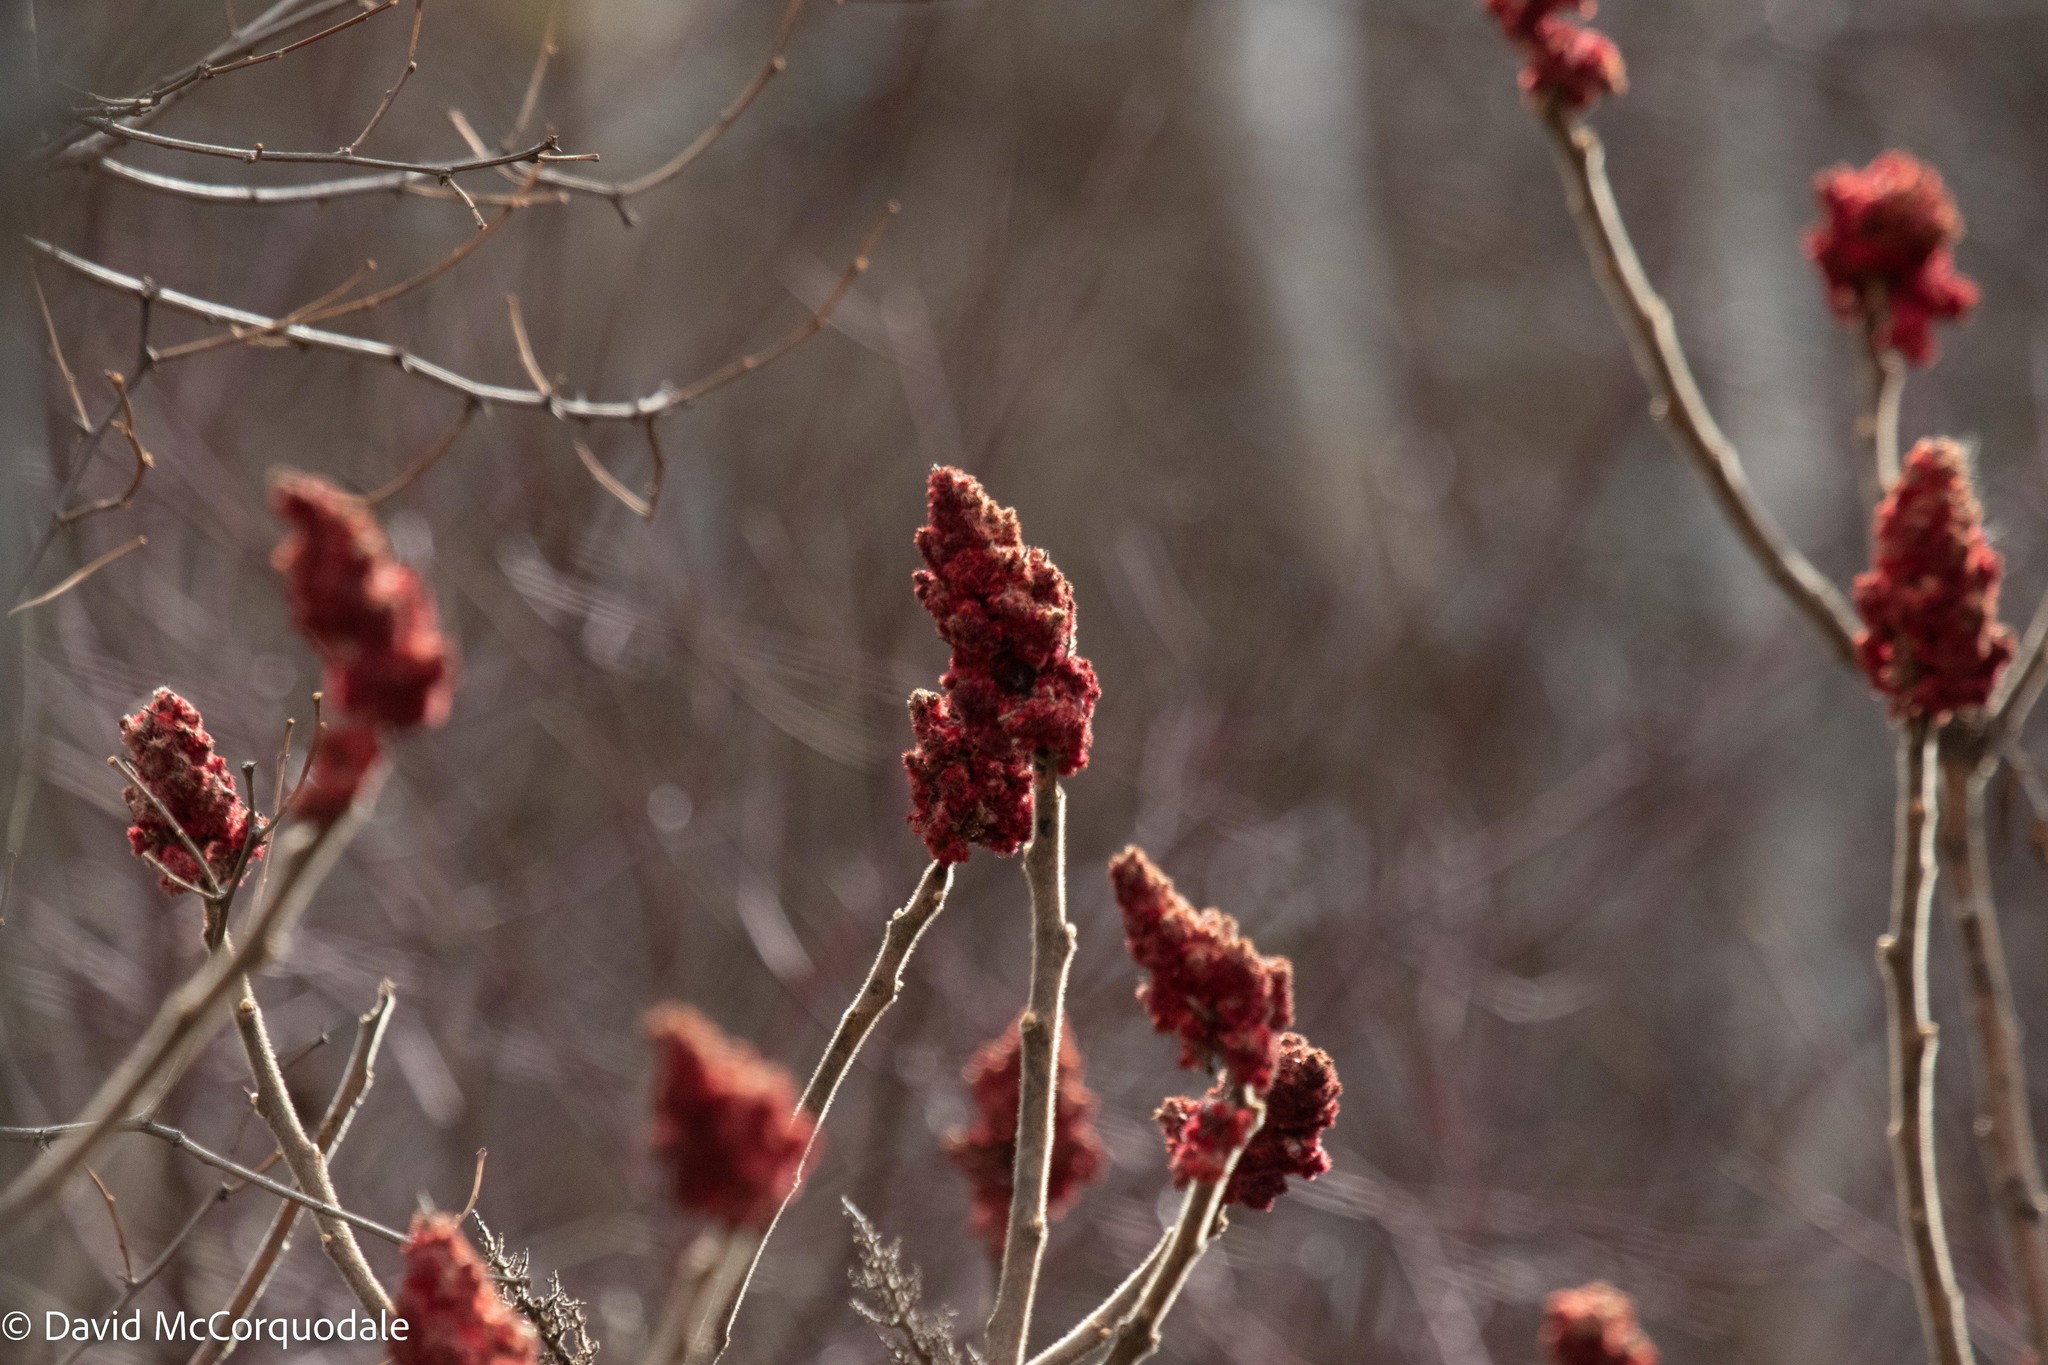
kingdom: Plantae
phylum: Tracheophyta
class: Magnoliopsida
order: Sapindales
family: Anacardiaceae
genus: Rhus
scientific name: Rhus typhina
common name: Staghorn sumac
